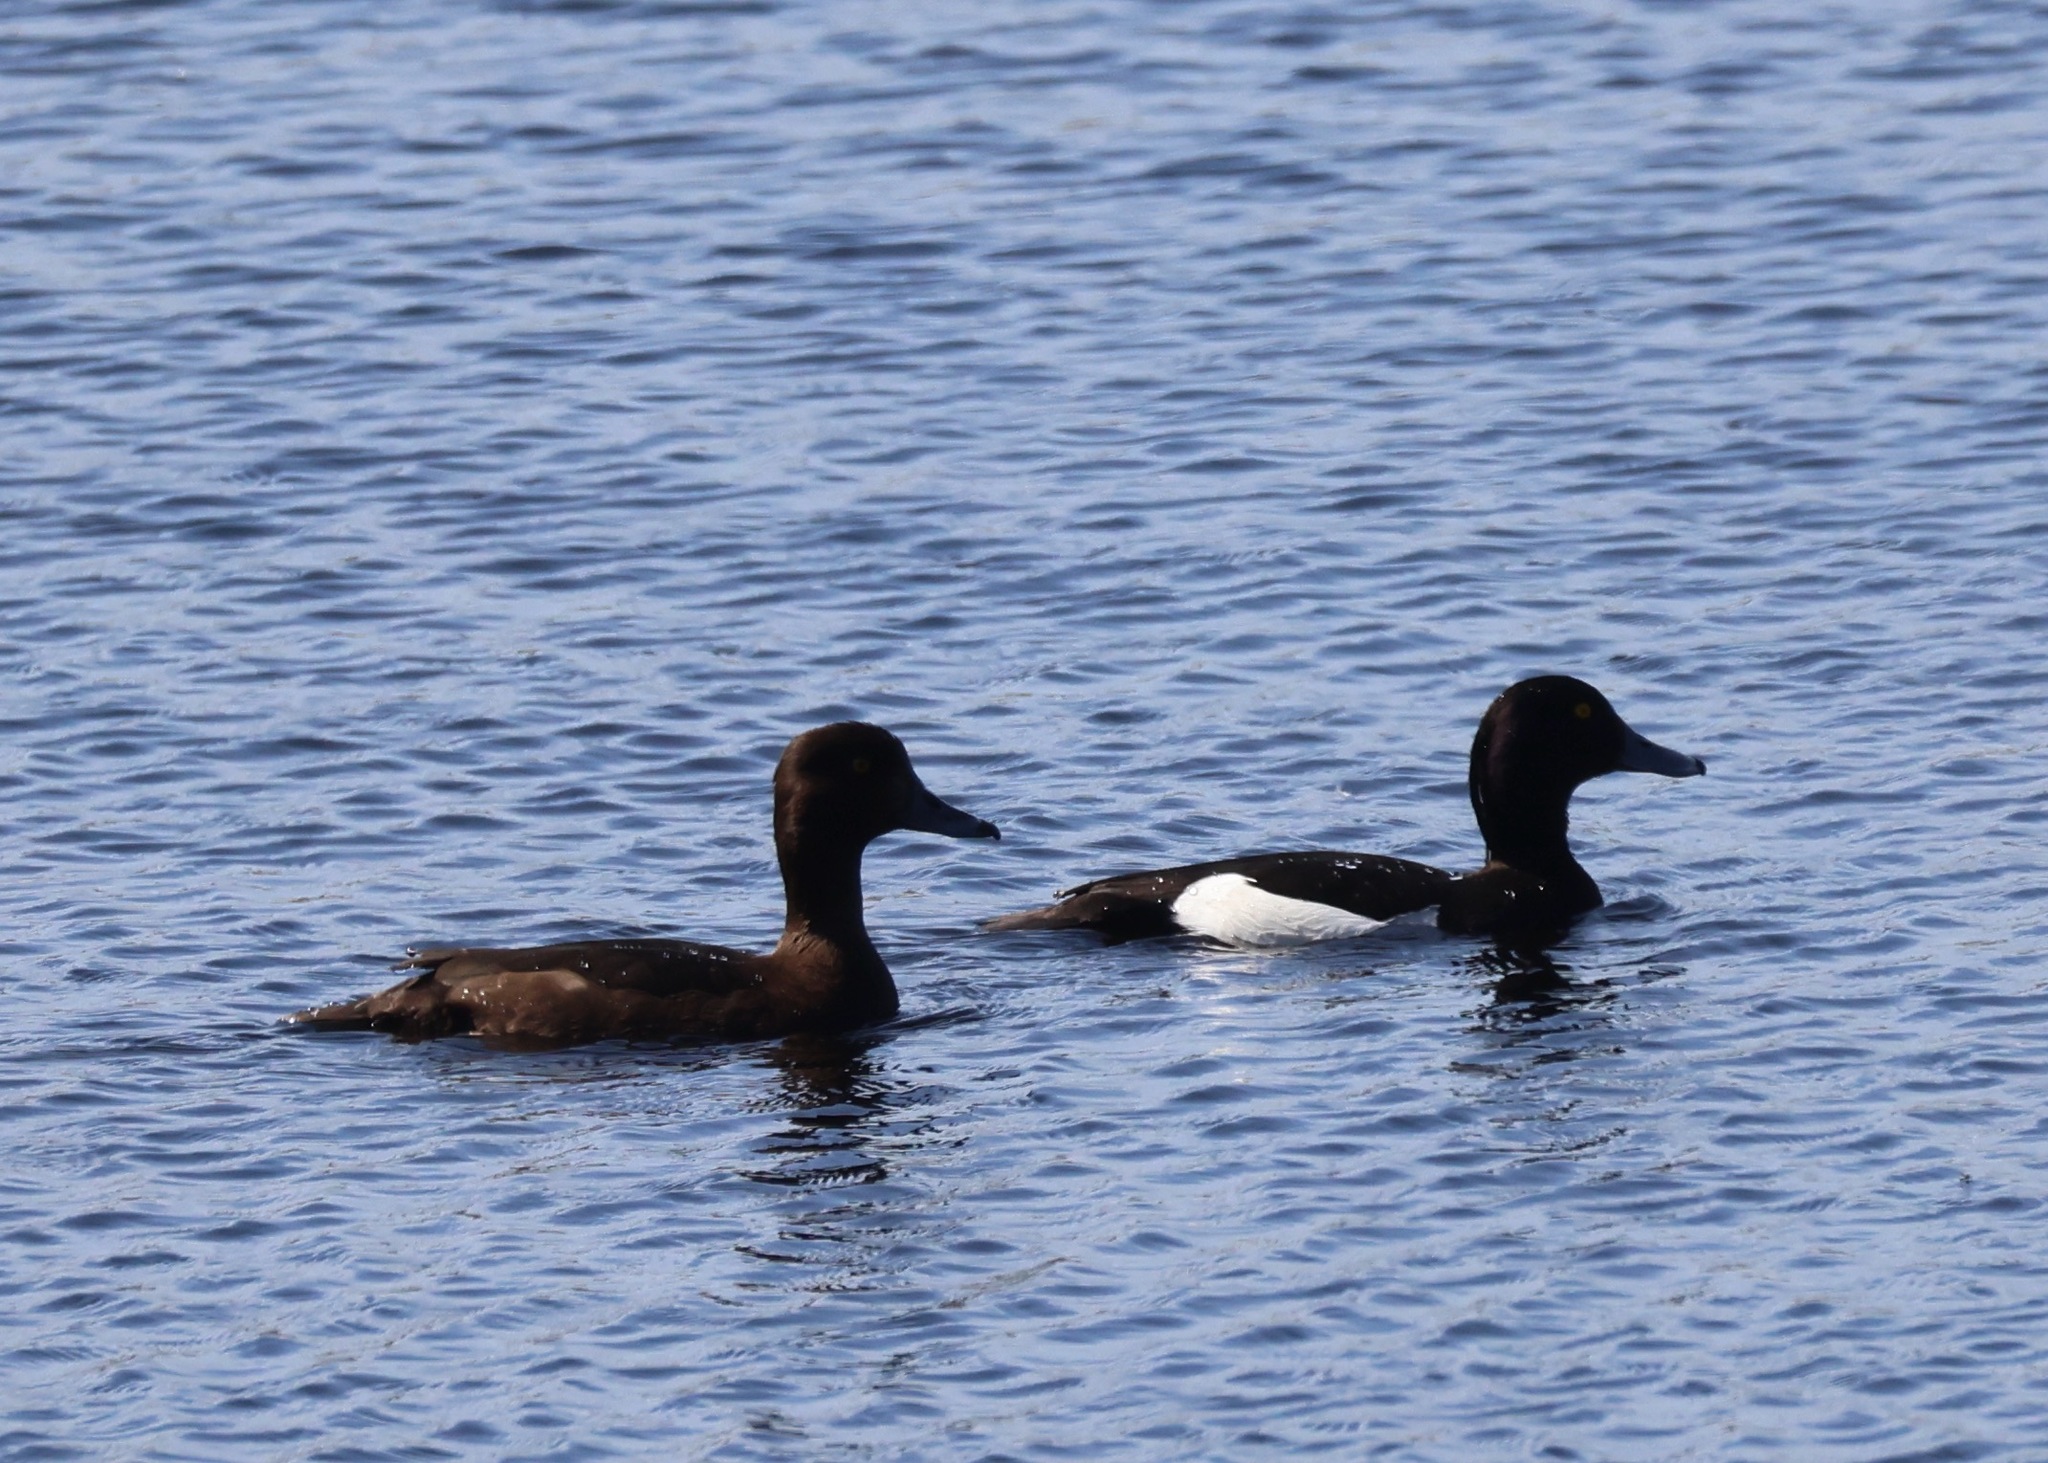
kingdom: Animalia
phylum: Chordata
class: Aves
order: Anseriformes
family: Anatidae
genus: Aythya
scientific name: Aythya fuligula
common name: Tufted duck
